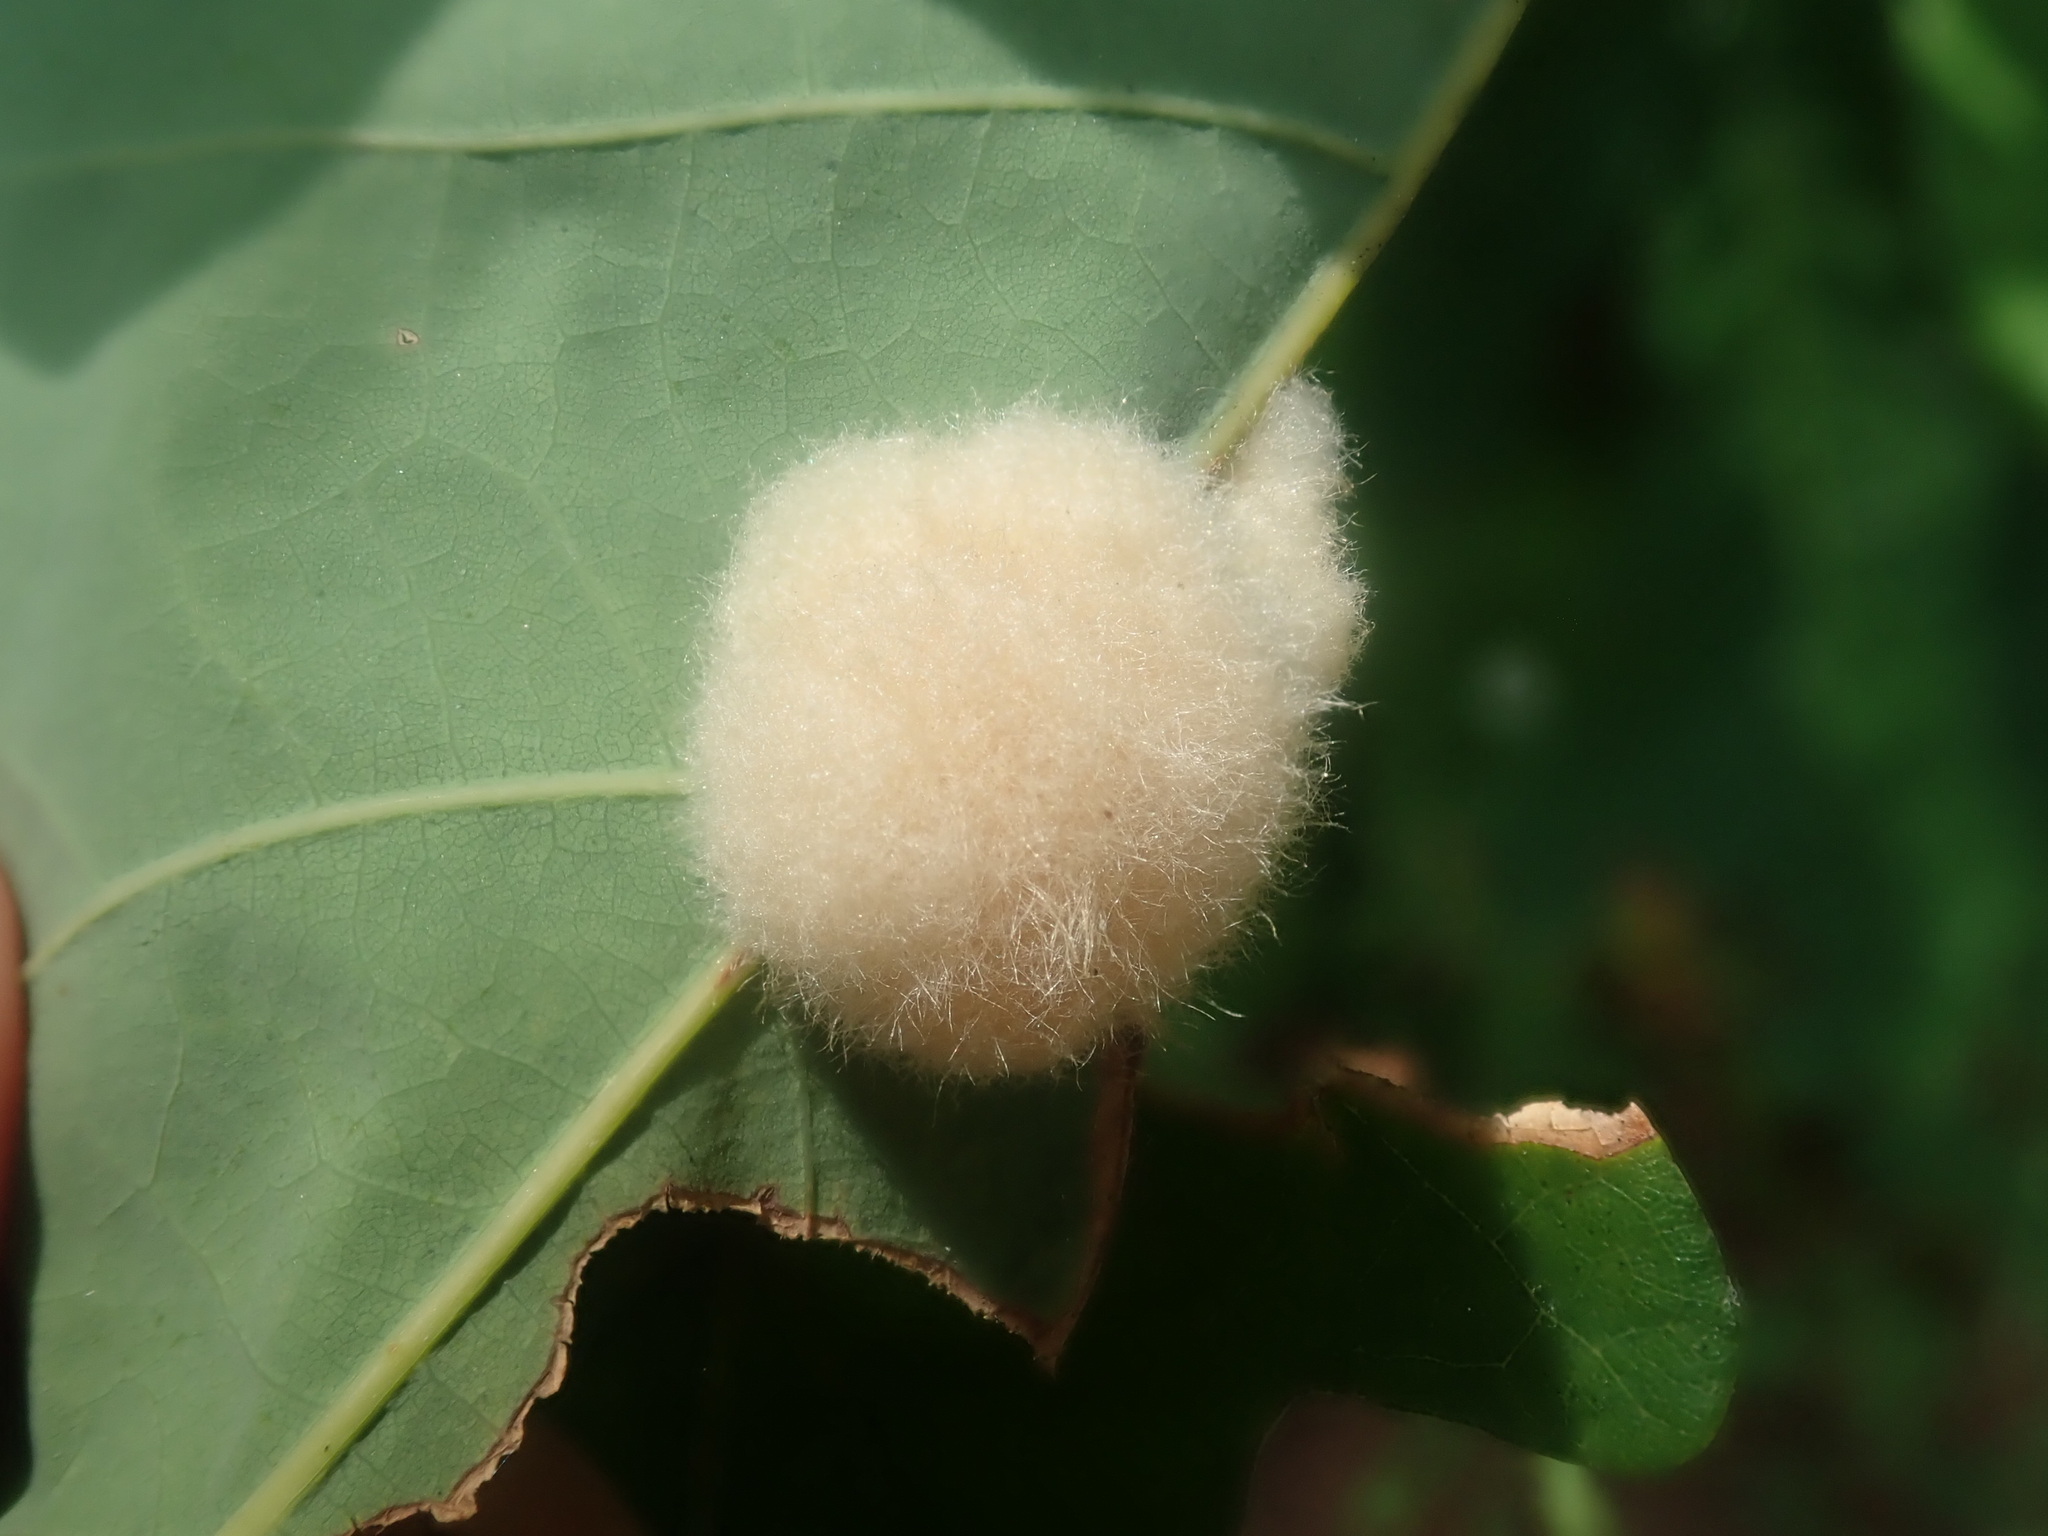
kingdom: Animalia
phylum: Arthropoda
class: Insecta
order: Hymenoptera
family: Cynipidae
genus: Callirhytis
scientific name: Callirhytis
